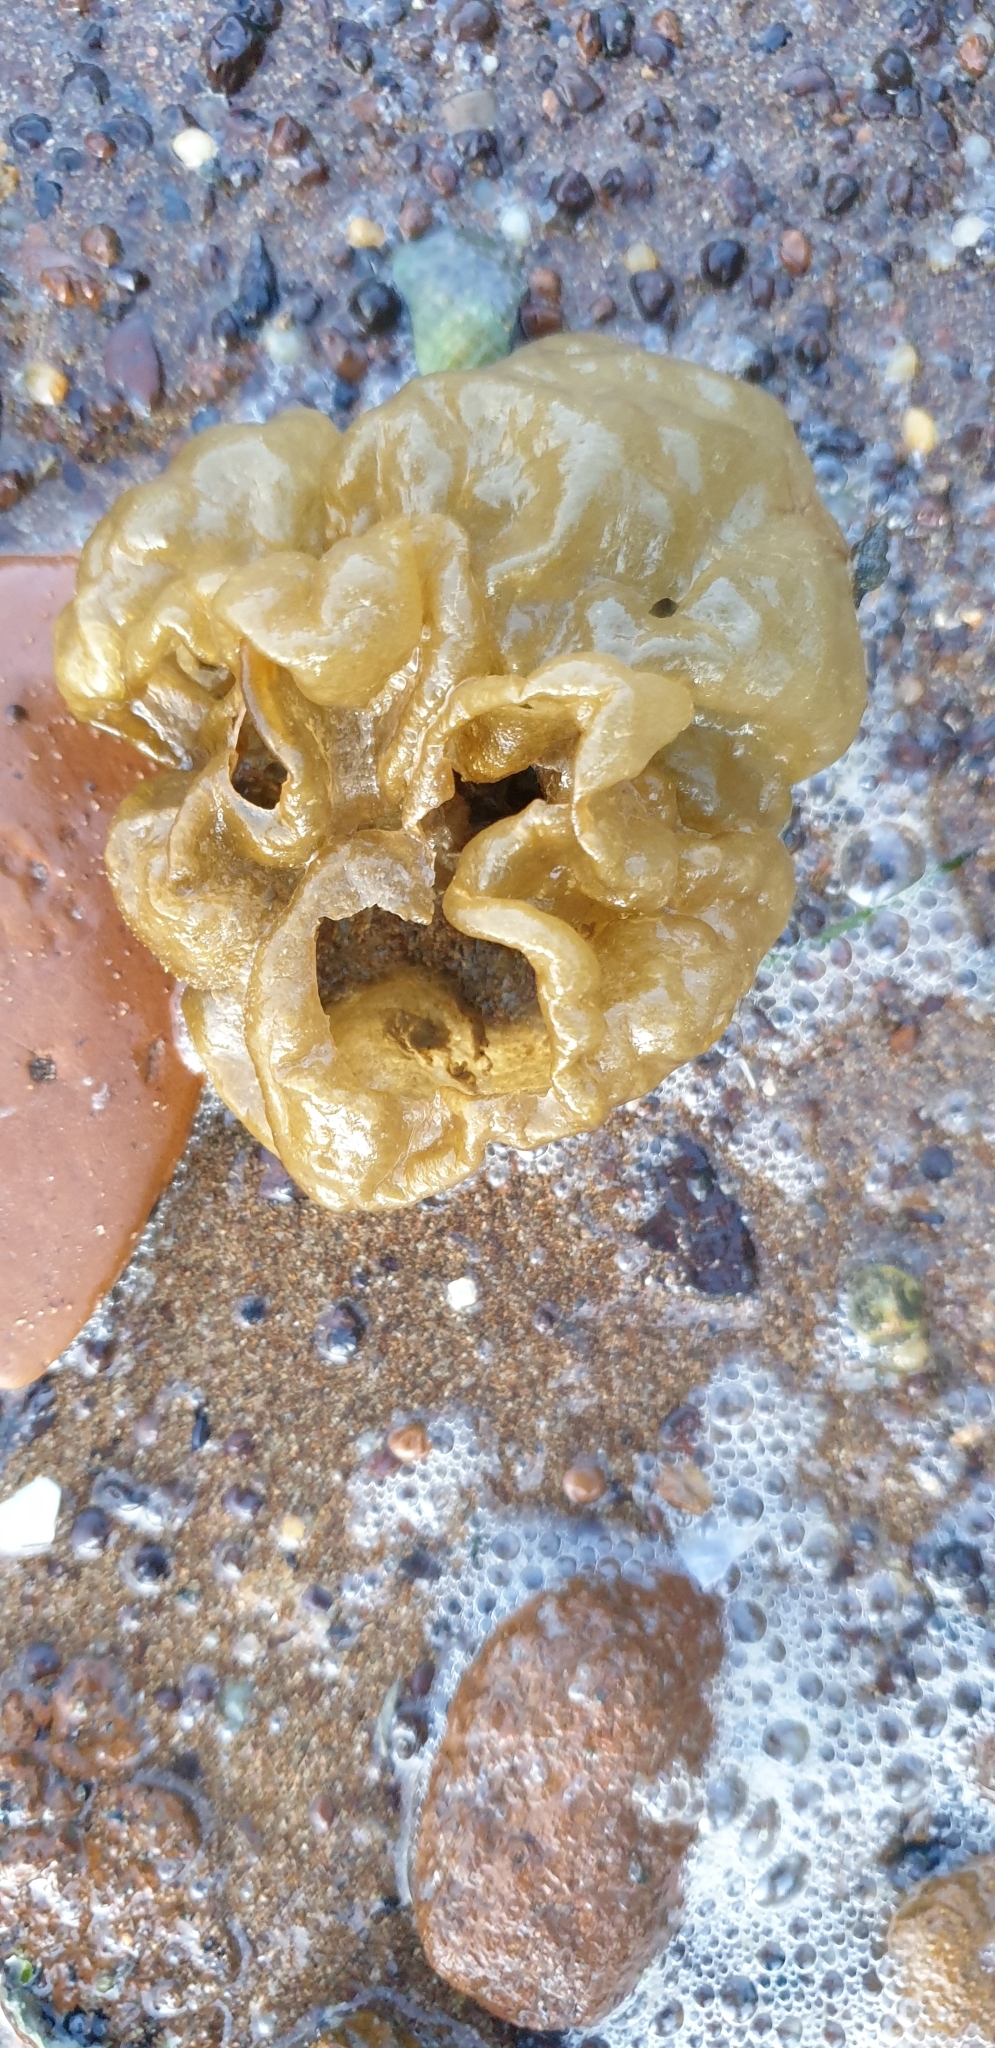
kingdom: Chromista
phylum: Ochrophyta
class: Phaeophyceae
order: Scytosiphonales
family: Scytosiphonaceae
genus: Colpomenia
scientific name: Colpomenia peregrina
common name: Oyster thief
